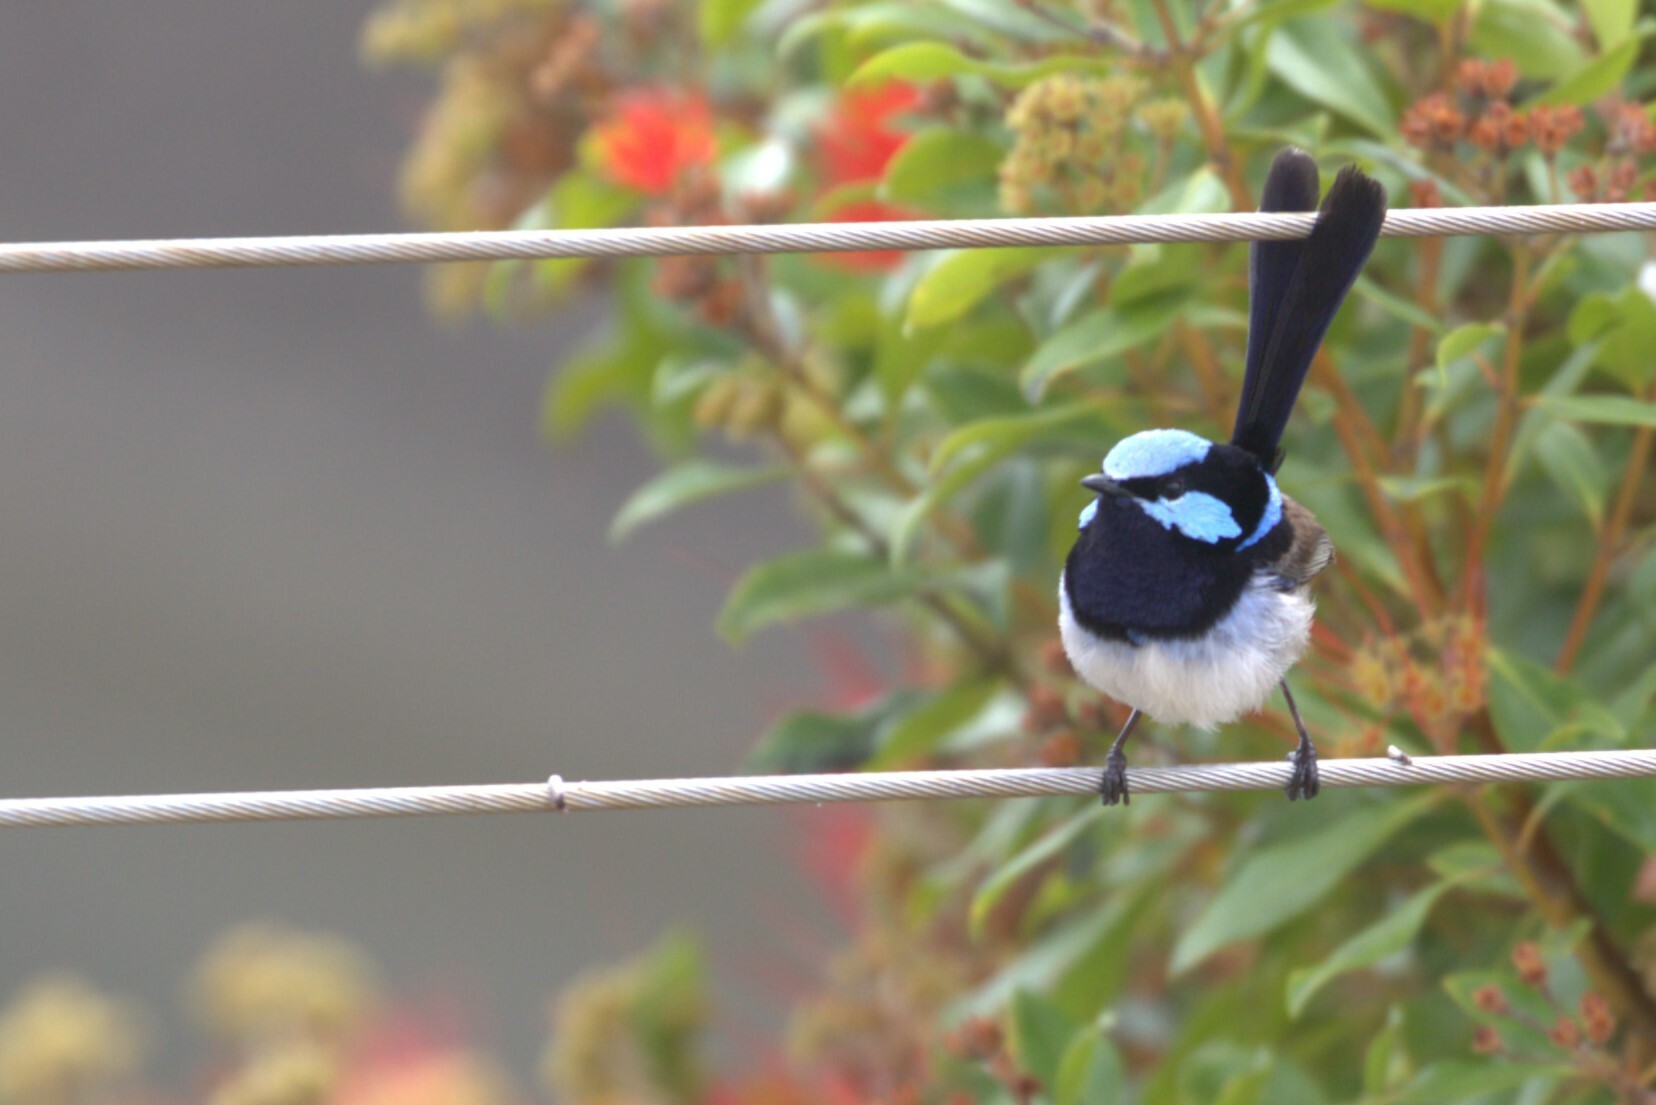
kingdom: Animalia
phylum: Chordata
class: Aves
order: Passeriformes
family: Maluridae
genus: Malurus
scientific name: Malurus cyaneus
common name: Superb fairywren
